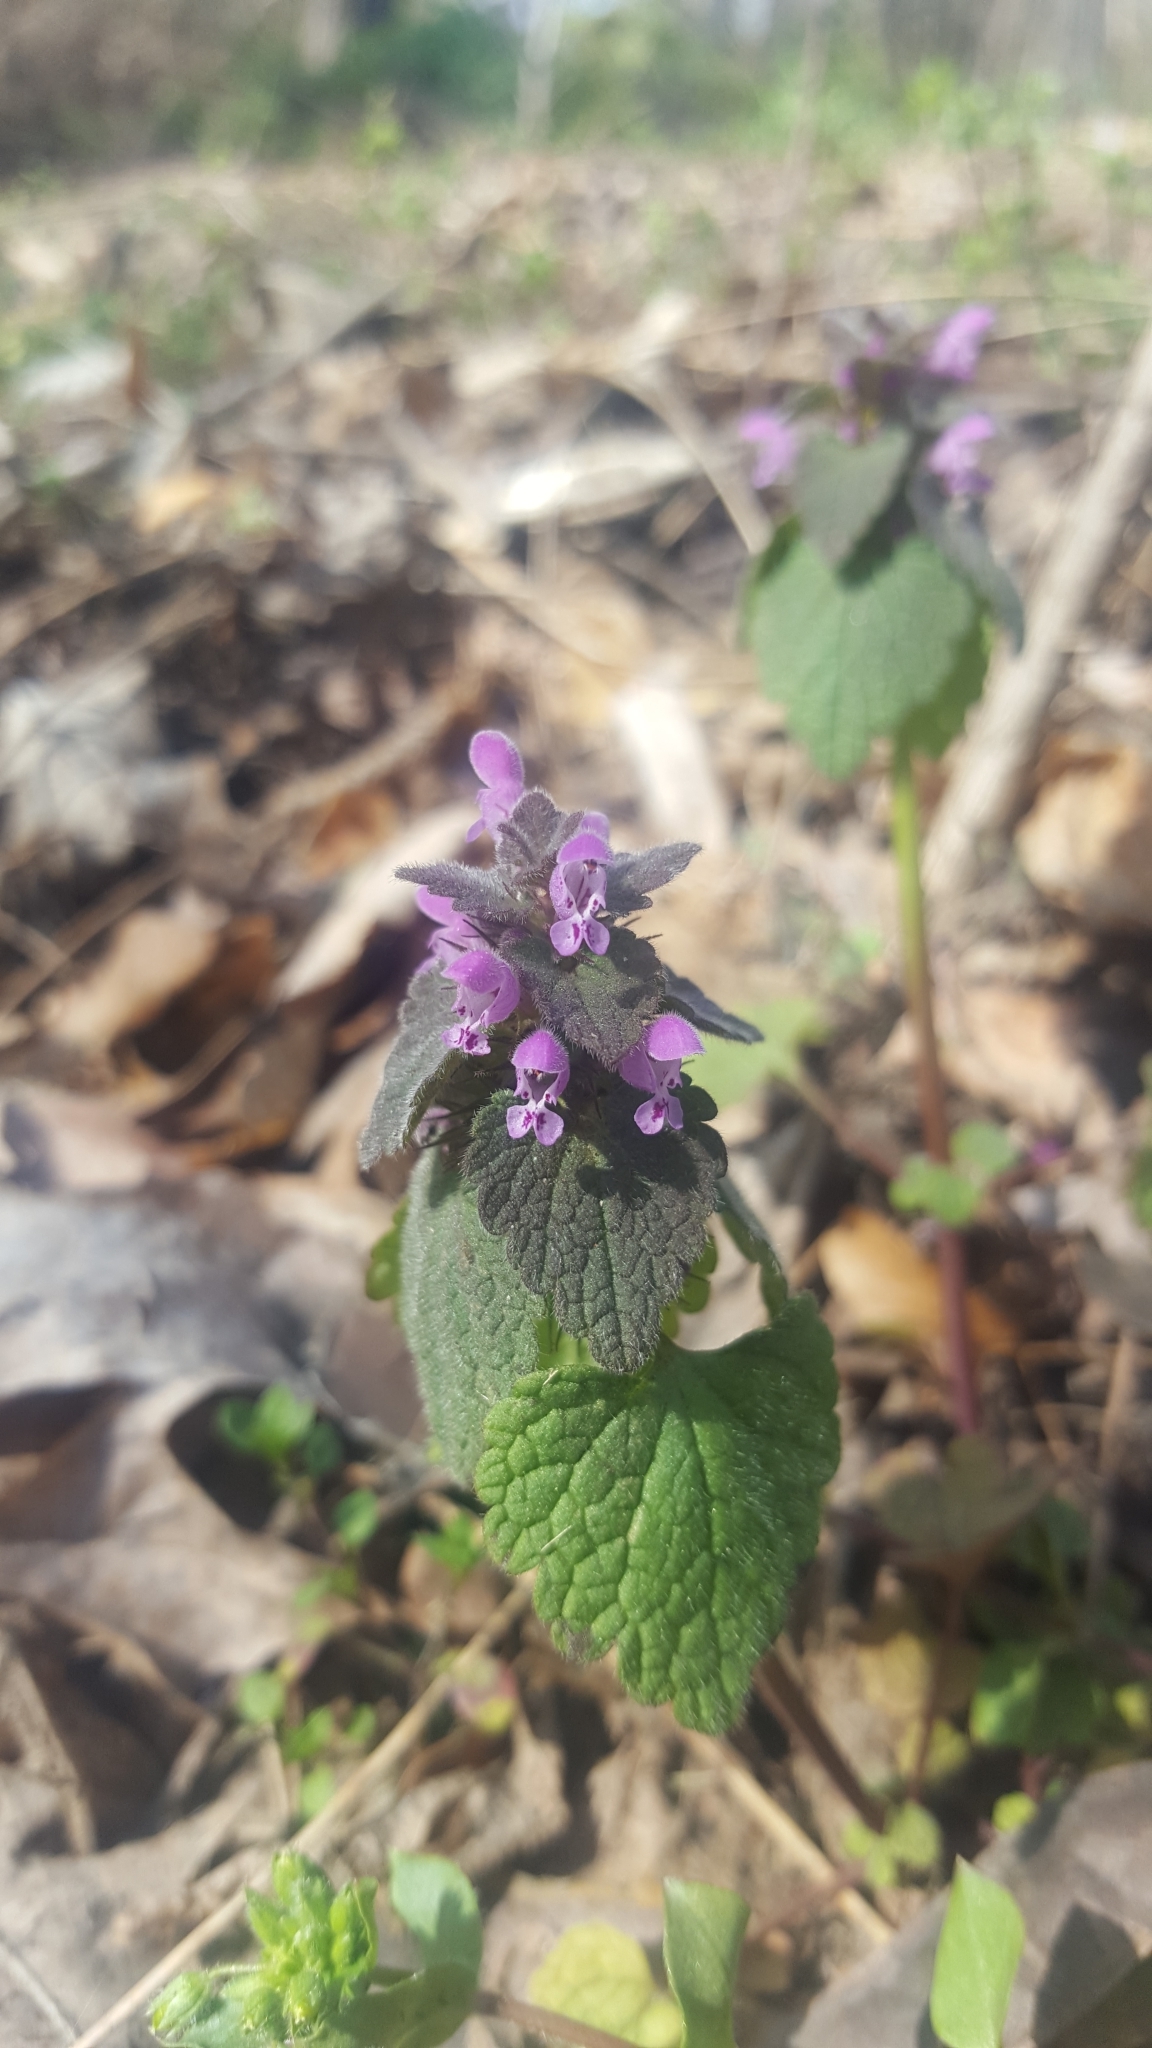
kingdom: Plantae
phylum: Tracheophyta
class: Magnoliopsida
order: Lamiales
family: Lamiaceae
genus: Lamium
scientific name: Lamium purpureum
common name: Red dead-nettle
